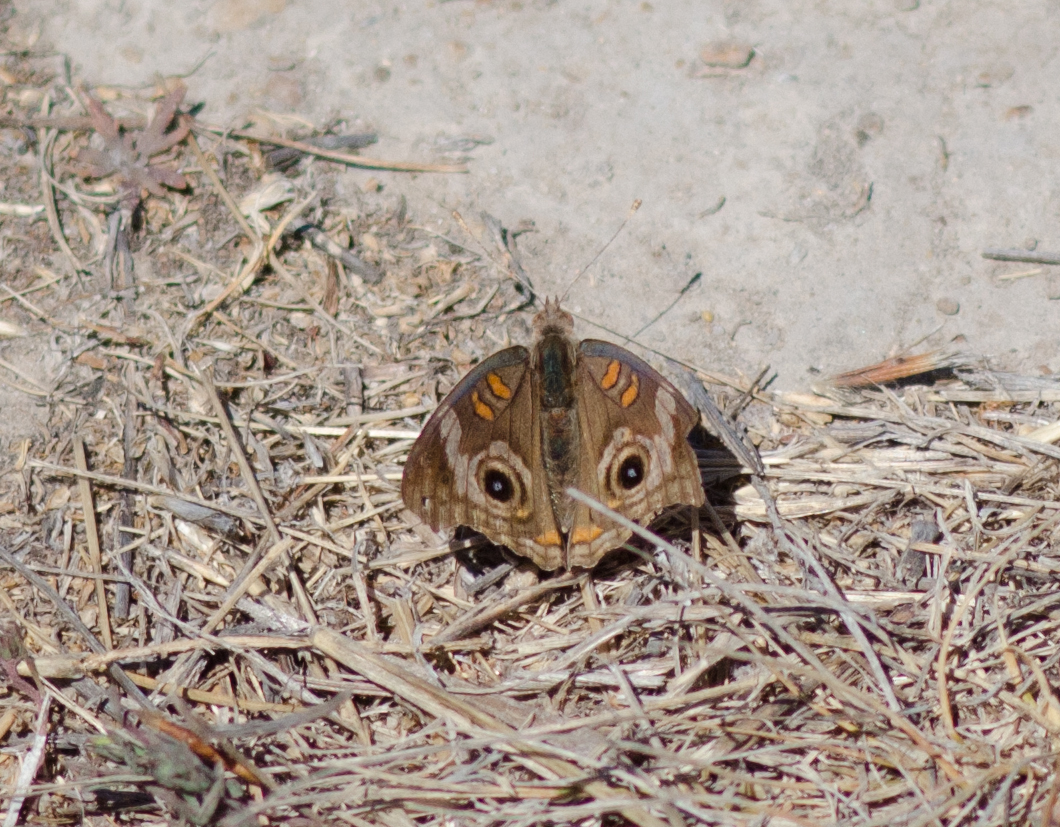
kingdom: Animalia
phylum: Arthropoda
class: Insecta
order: Lepidoptera
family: Nymphalidae
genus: Junonia
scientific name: Junonia grisea
